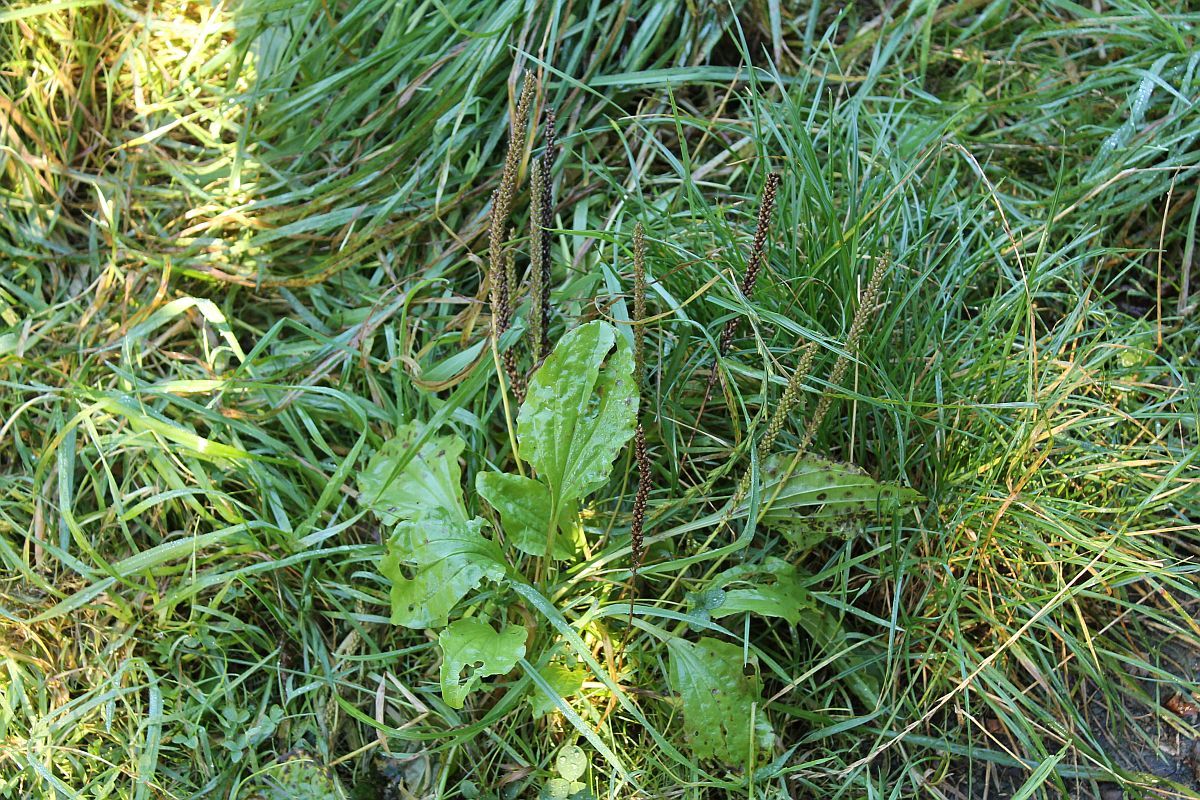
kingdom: Plantae
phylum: Tracheophyta
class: Magnoliopsida
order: Lamiales
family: Plantaginaceae
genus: Plantago
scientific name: Plantago major
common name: Common plantain
